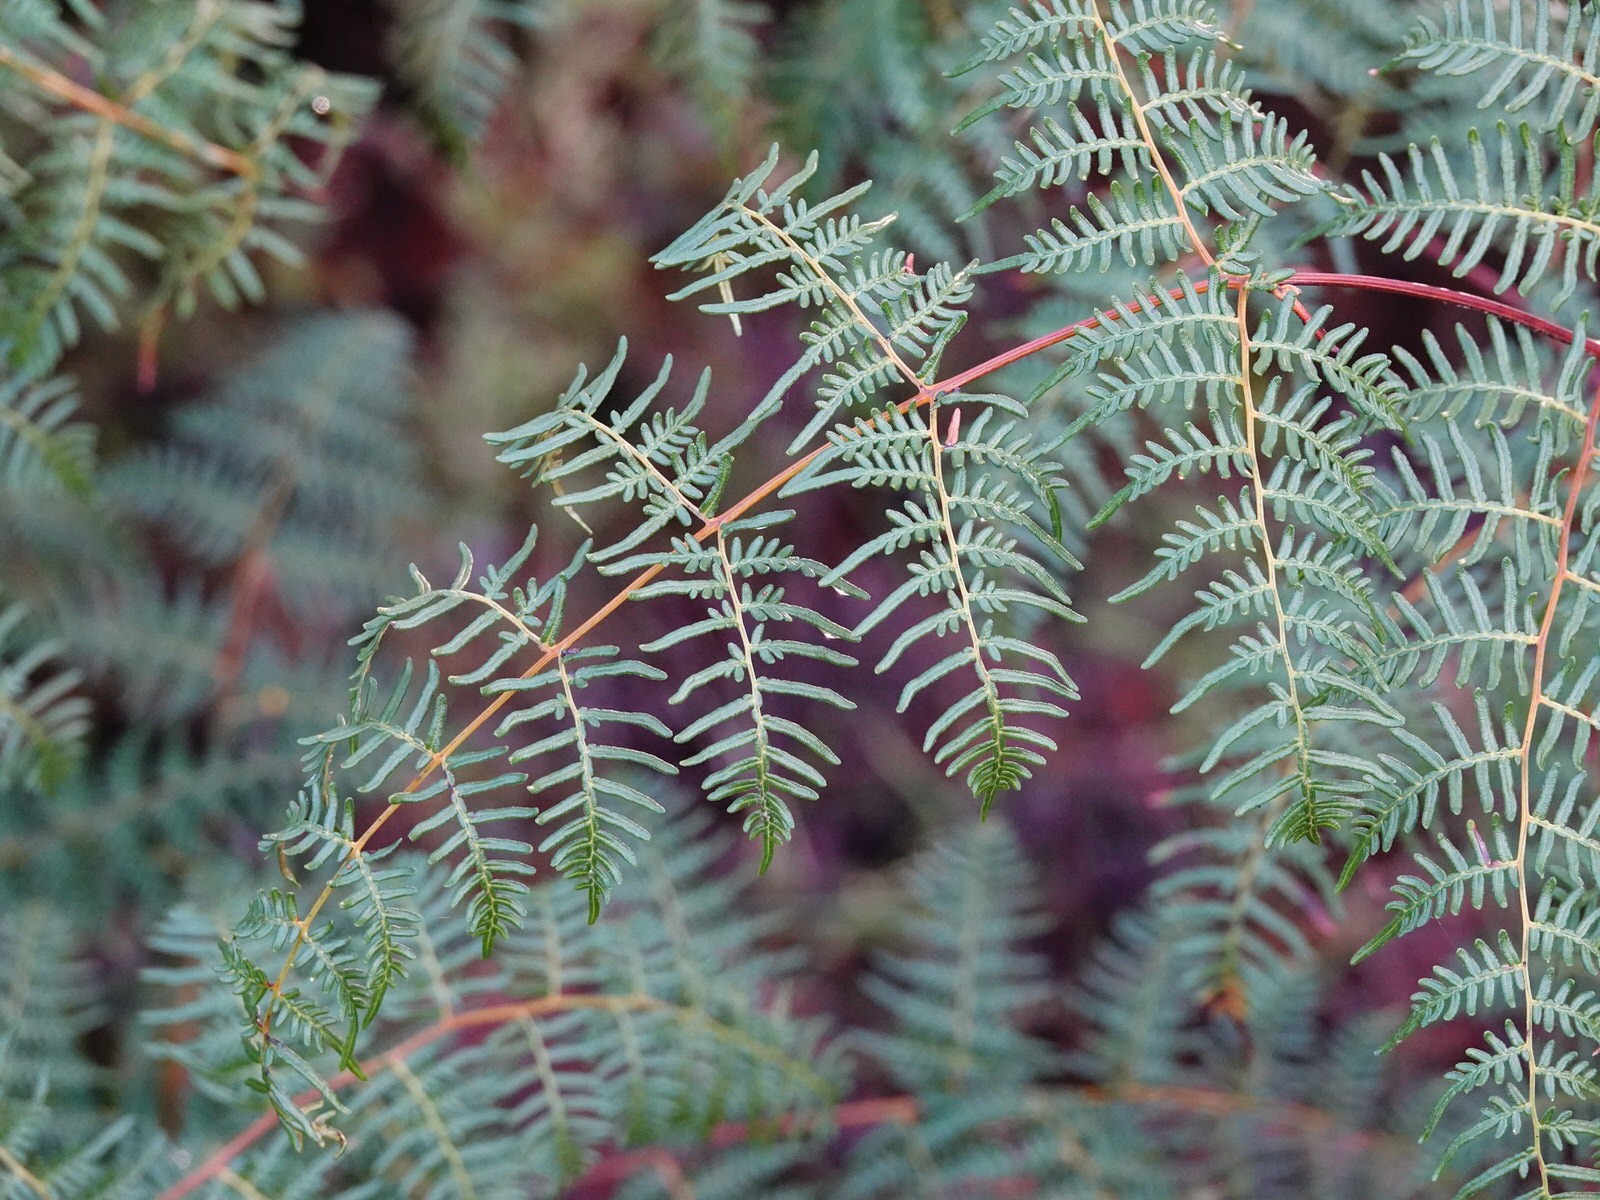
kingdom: Plantae
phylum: Tracheophyta
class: Polypodiopsida
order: Polypodiales
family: Dennstaedtiaceae
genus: Pteridium
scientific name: Pteridium esculentum
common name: Bracken fern
